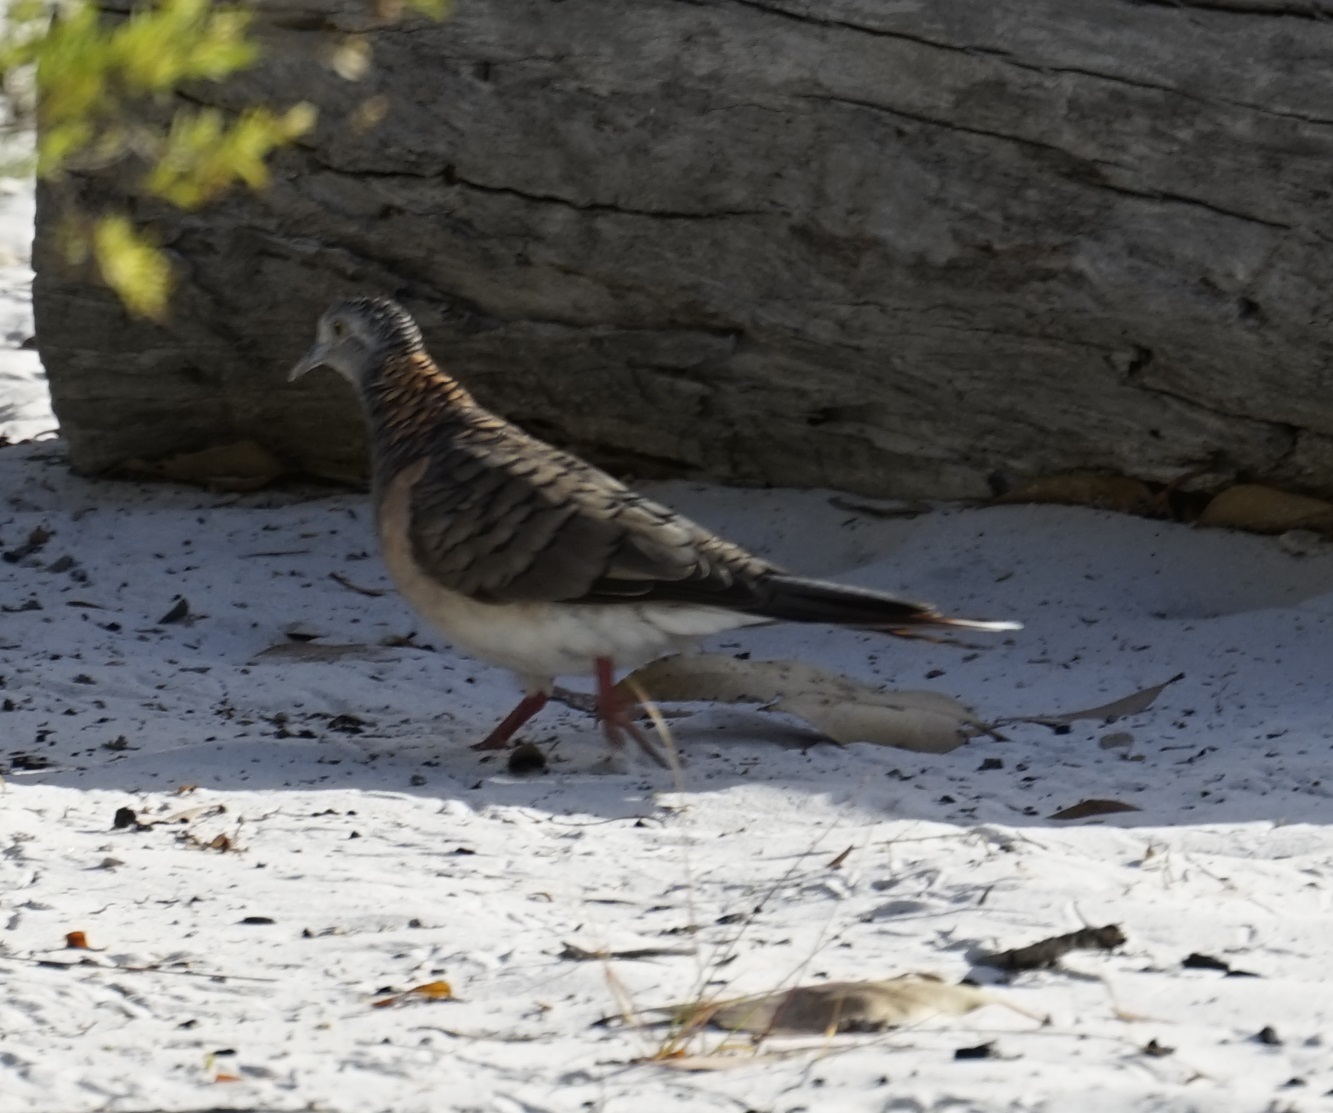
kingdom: Animalia
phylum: Chordata
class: Aves
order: Columbiformes
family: Columbidae
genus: Geopelia
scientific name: Geopelia humeralis
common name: Bar-shouldered dove
